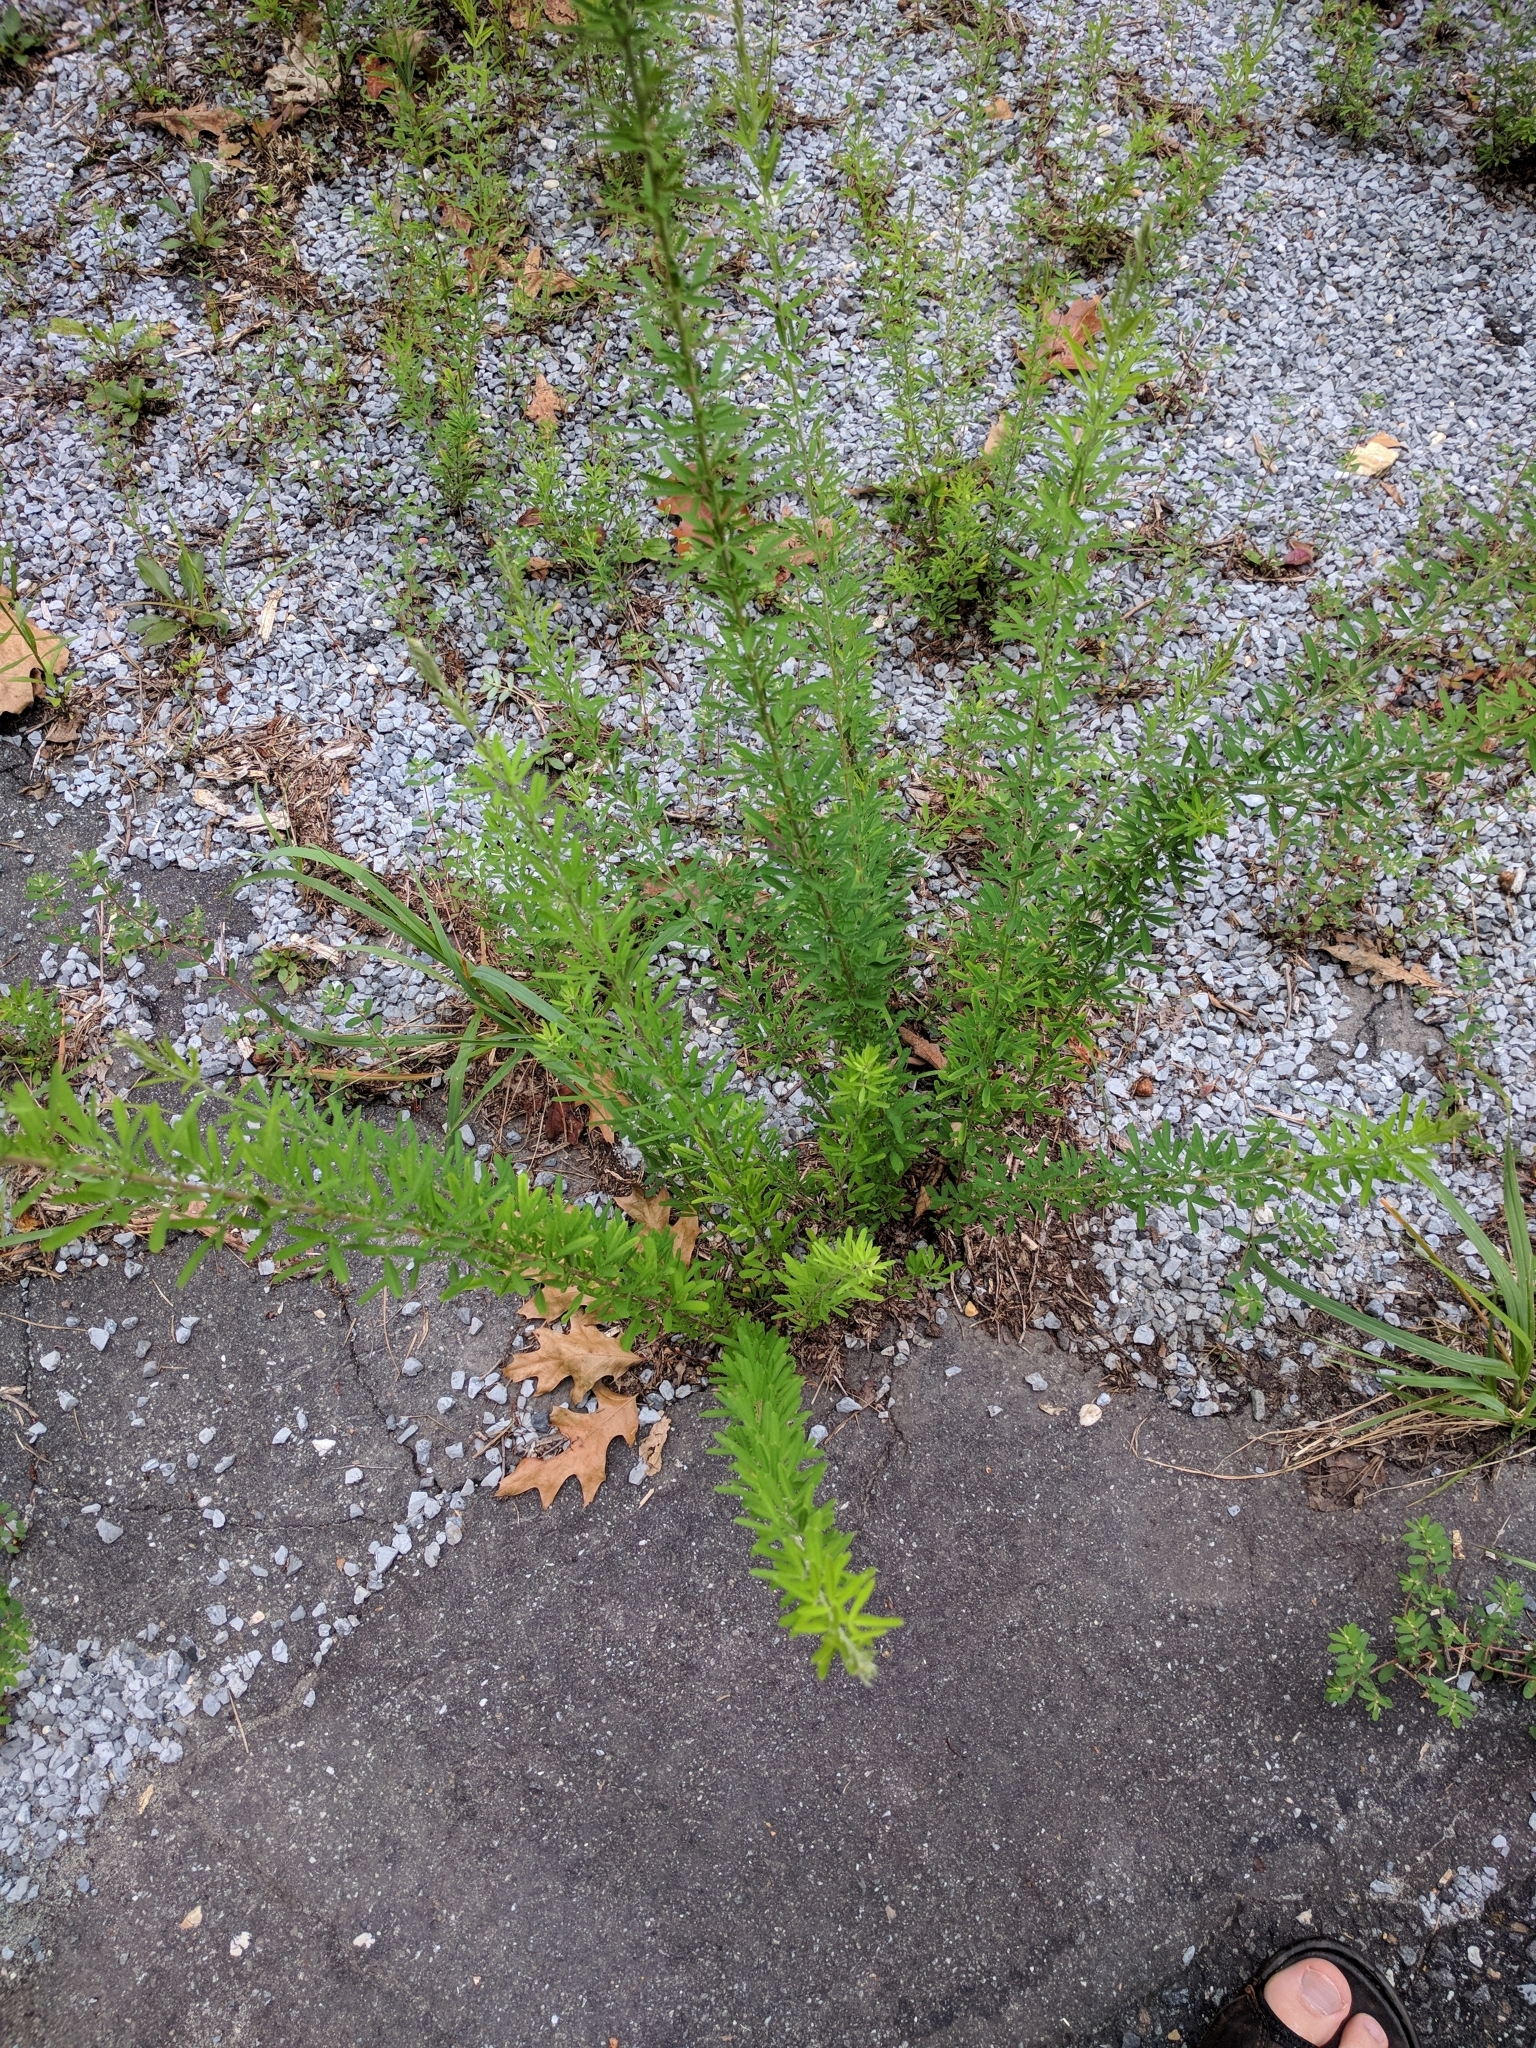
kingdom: Plantae
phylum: Tracheophyta
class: Magnoliopsida
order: Fabales
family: Fabaceae
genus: Lespedeza
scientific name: Lespedeza cuneata
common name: Chinese bush-clover
